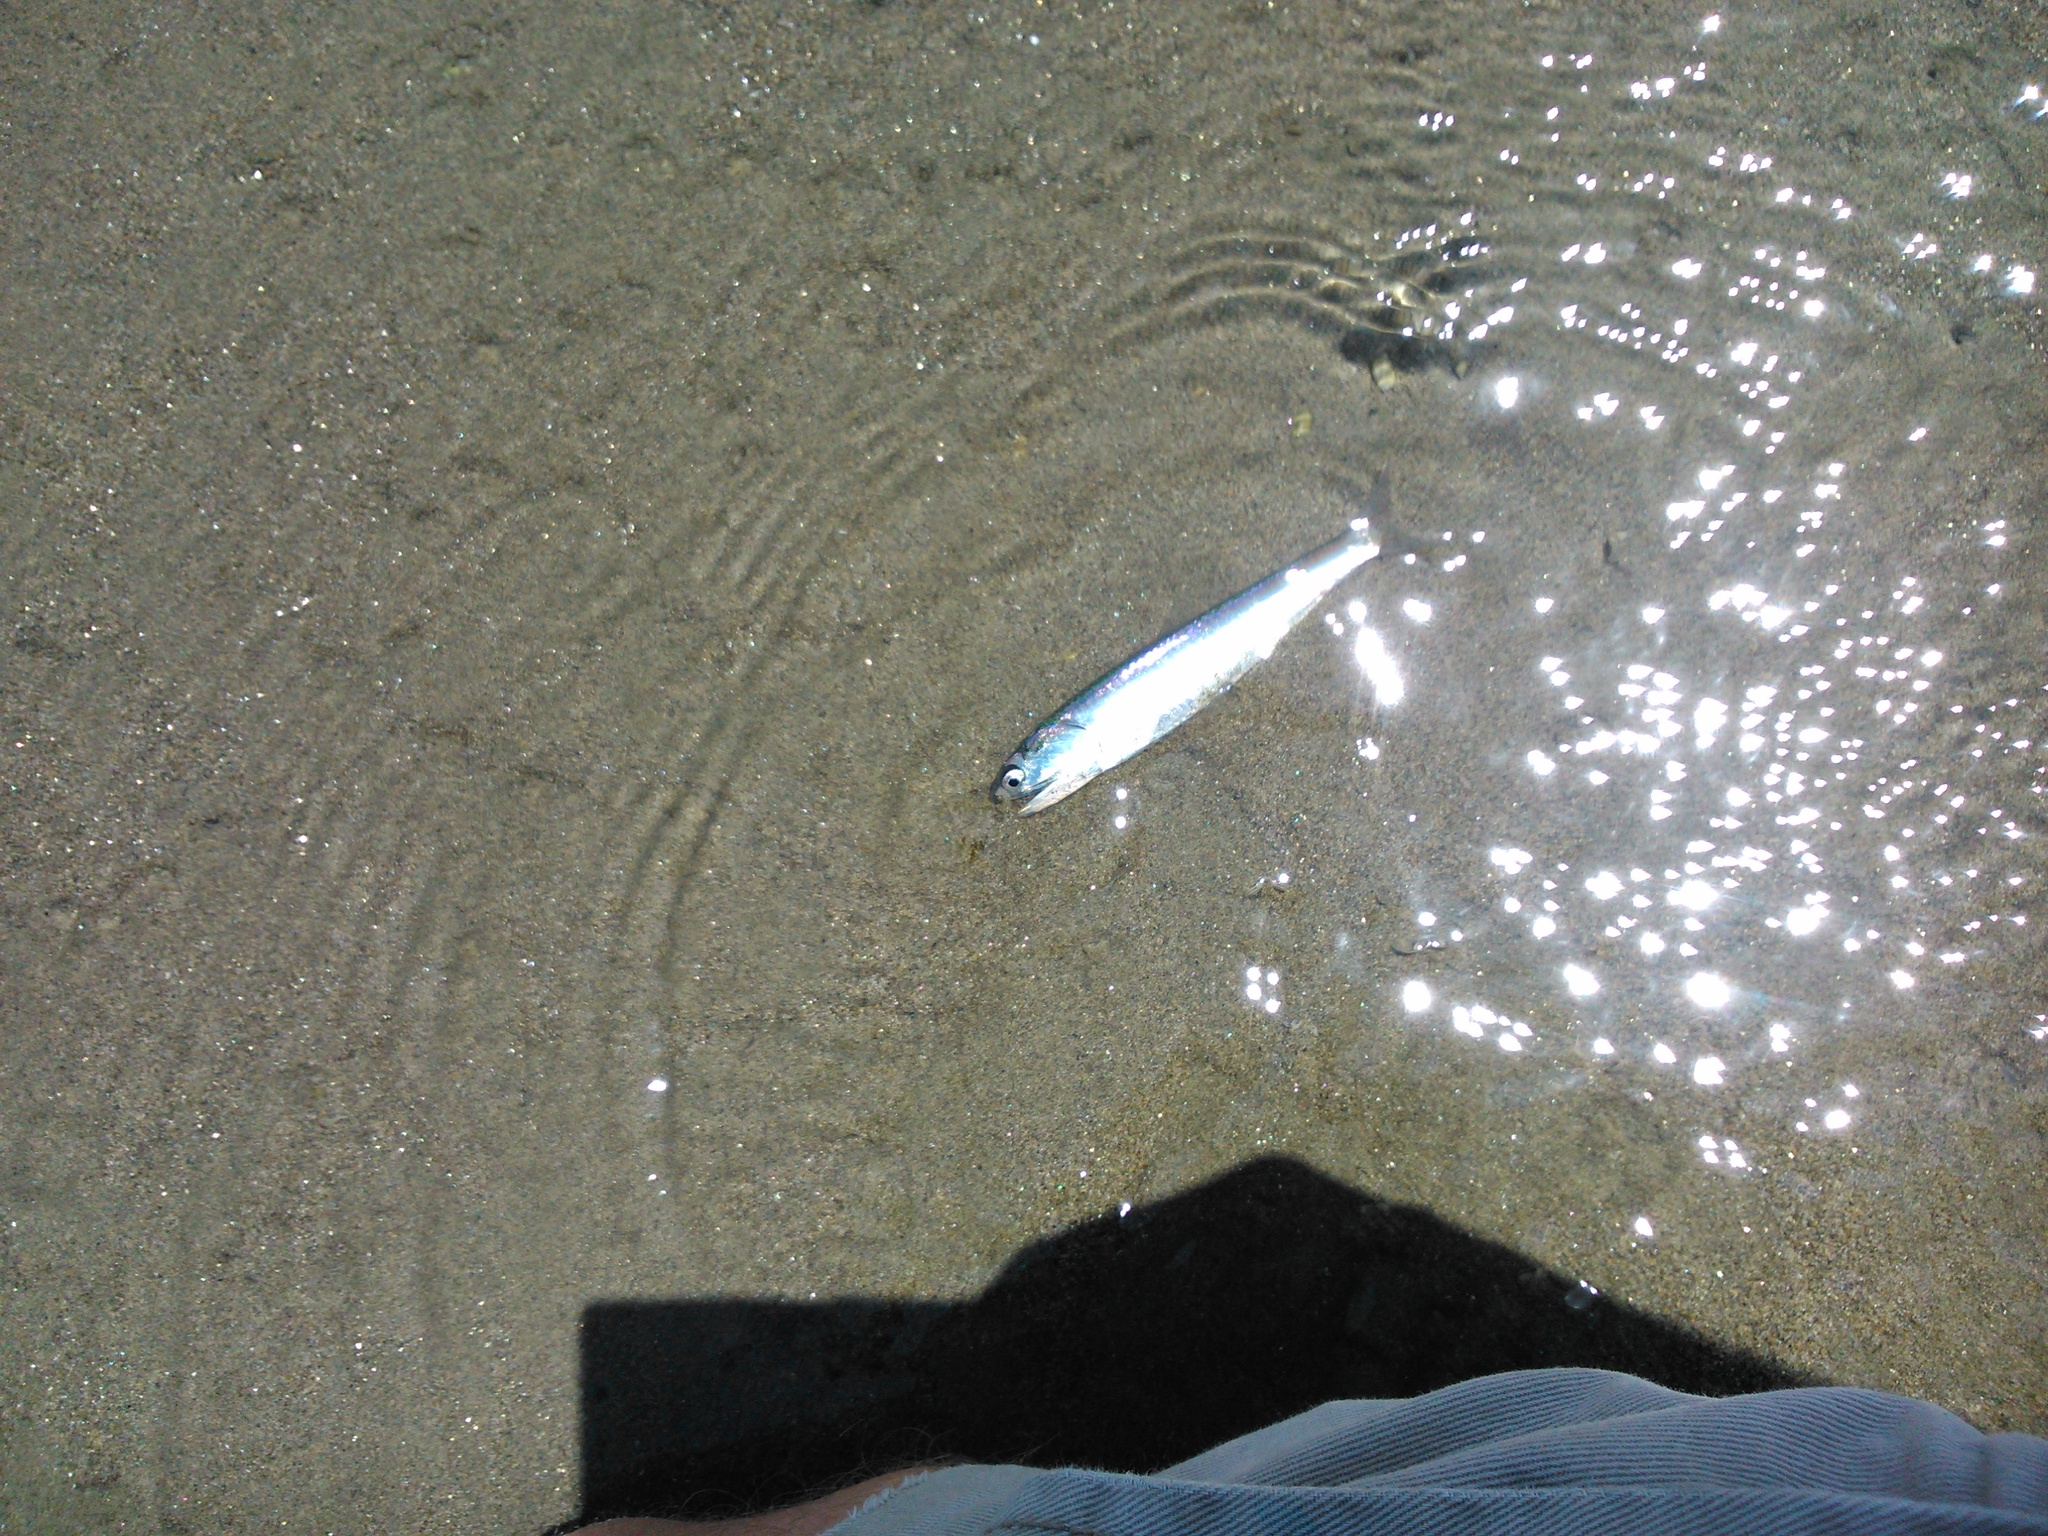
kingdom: Animalia
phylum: Chordata
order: Clupeiformes
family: Engraulidae
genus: Engraulis
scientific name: Engraulis ringens
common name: Peruvian anchovy
